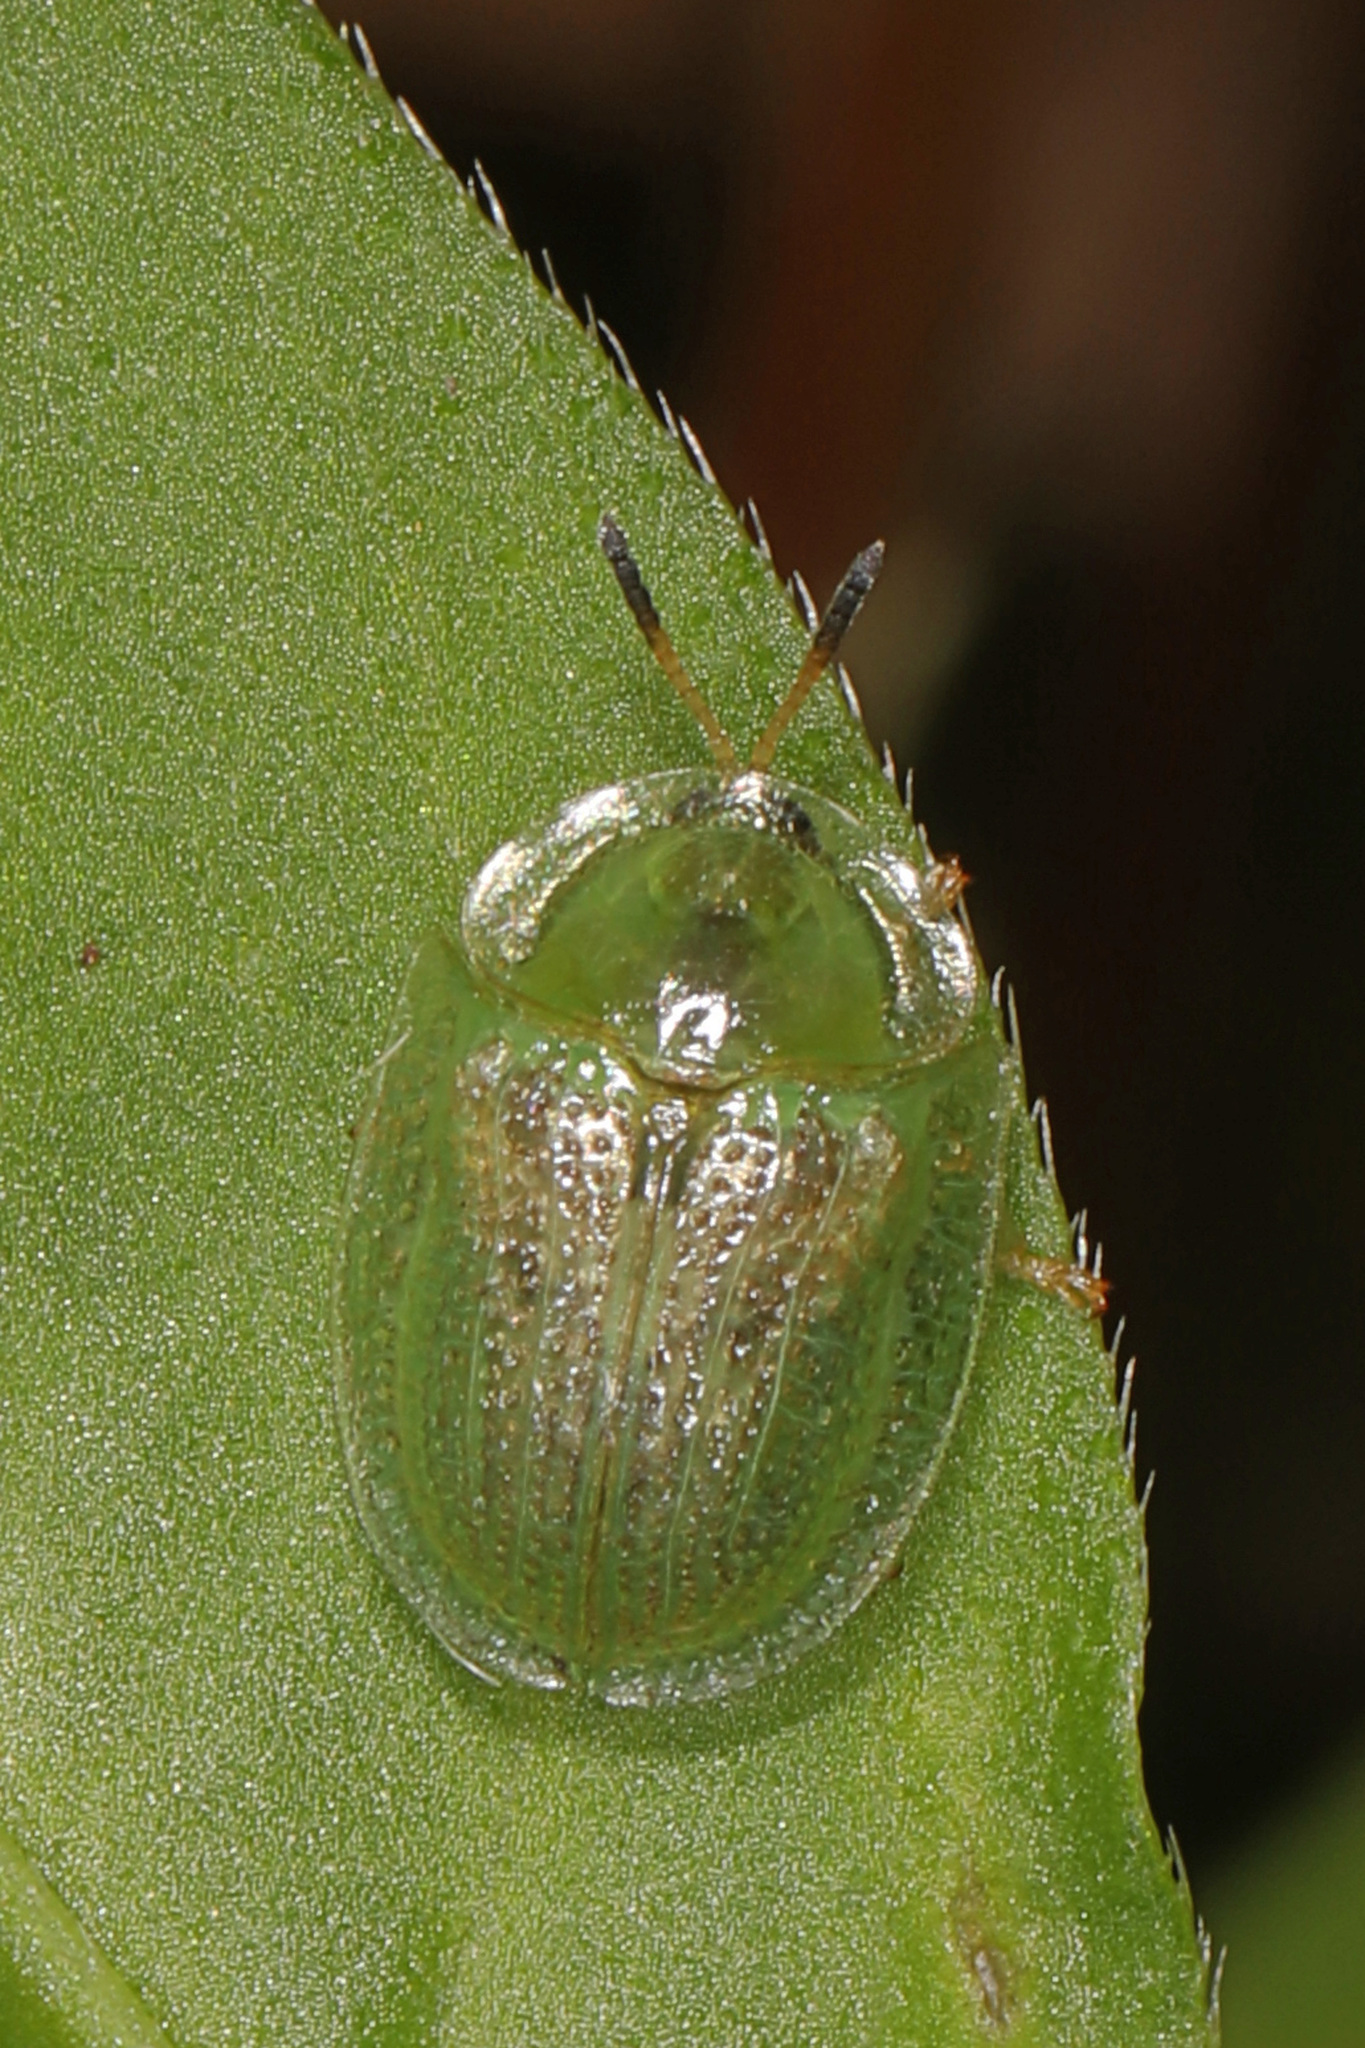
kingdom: Animalia
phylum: Arthropoda
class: Insecta
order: Coleoptera
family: Chrysomelidae
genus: Gratiana
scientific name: Gratiana pallidula
